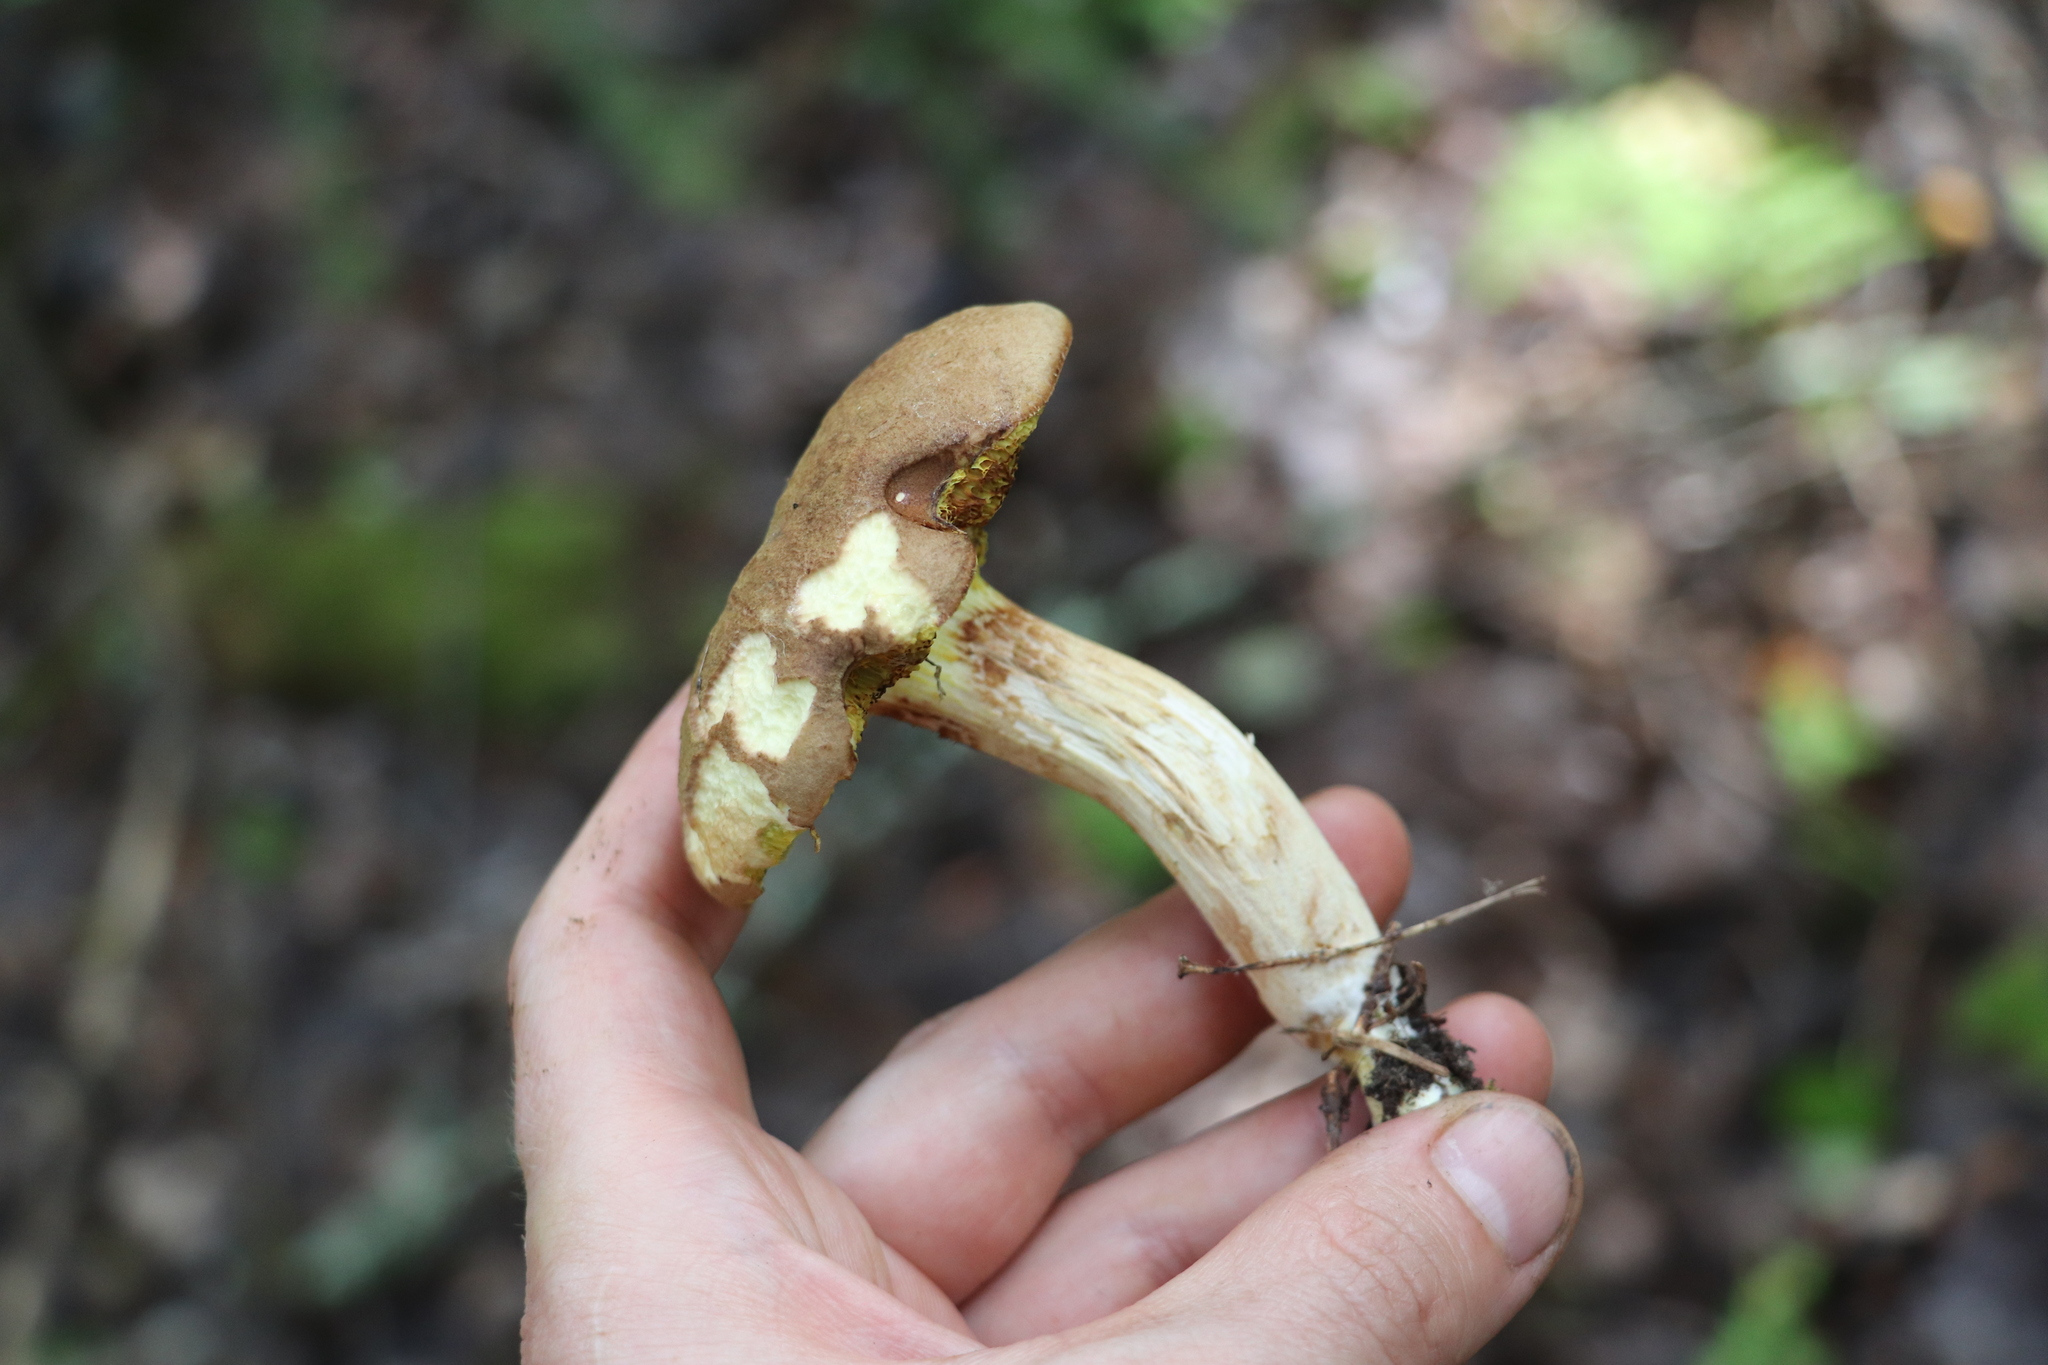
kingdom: Fungi
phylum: Basidiomycota
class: Agaricomycetes
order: Boletales
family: Boletaceae
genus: Xerocomus
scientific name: Xerocomus subtomentosus
